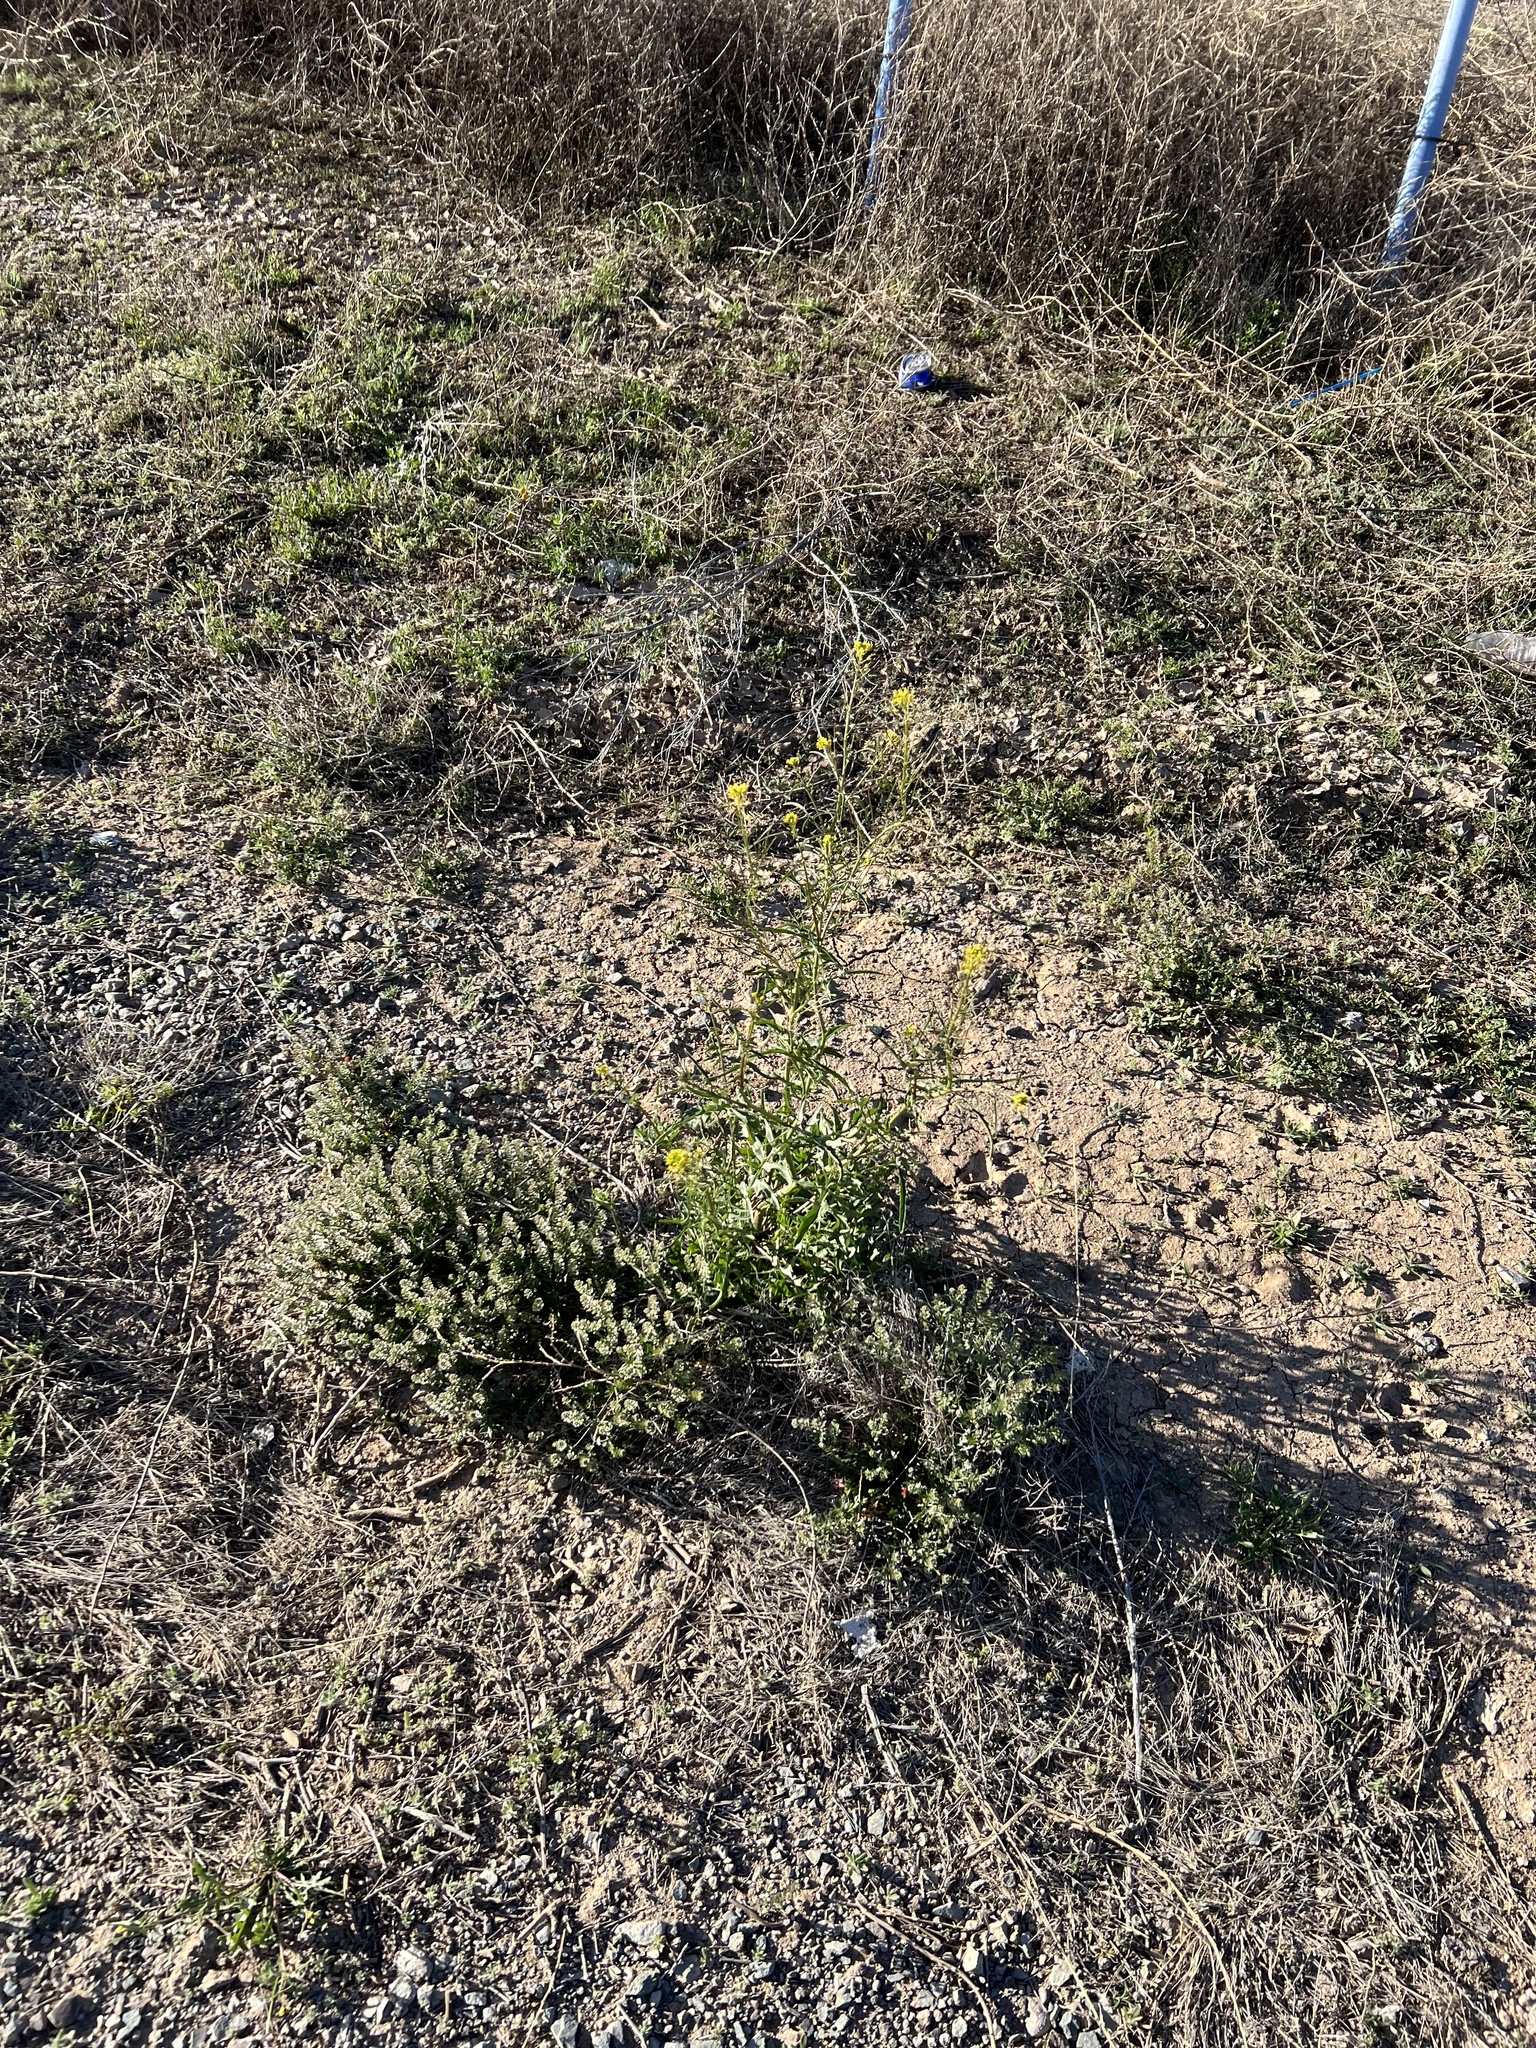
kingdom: Plantae
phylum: Tracheophyta
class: Magnoliopsida
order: Brassicales
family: Brassicaceae
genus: Sisymbrium
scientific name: Sisymbrium irio
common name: London rocket
